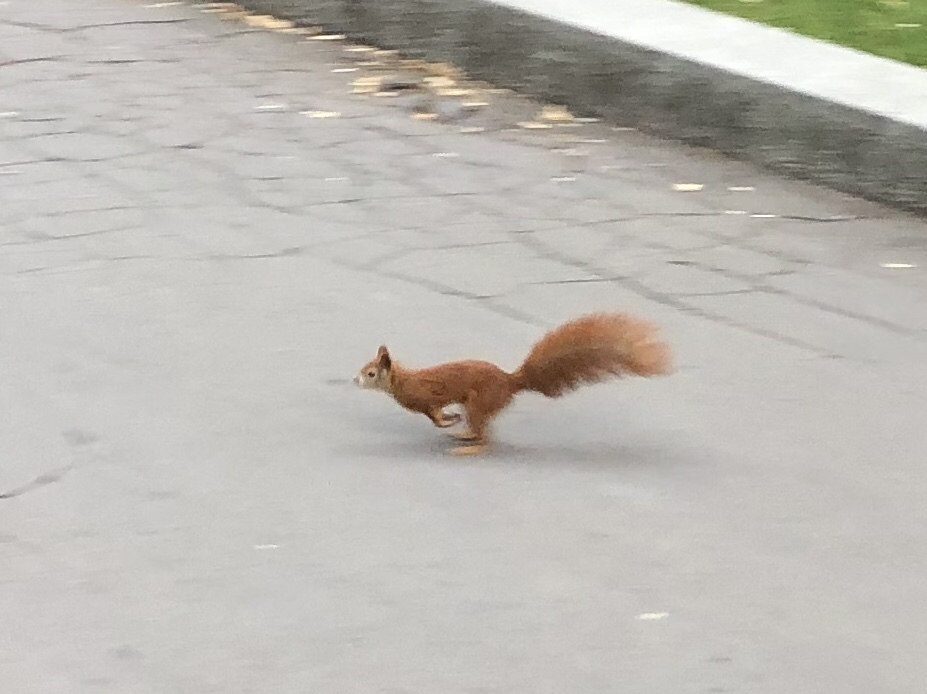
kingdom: Animalia
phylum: Chordata
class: Mammalia
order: Rodentia
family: Sciuridae
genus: Sciurus
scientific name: Sciurus vulgaris
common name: Eurasian red squirrel
